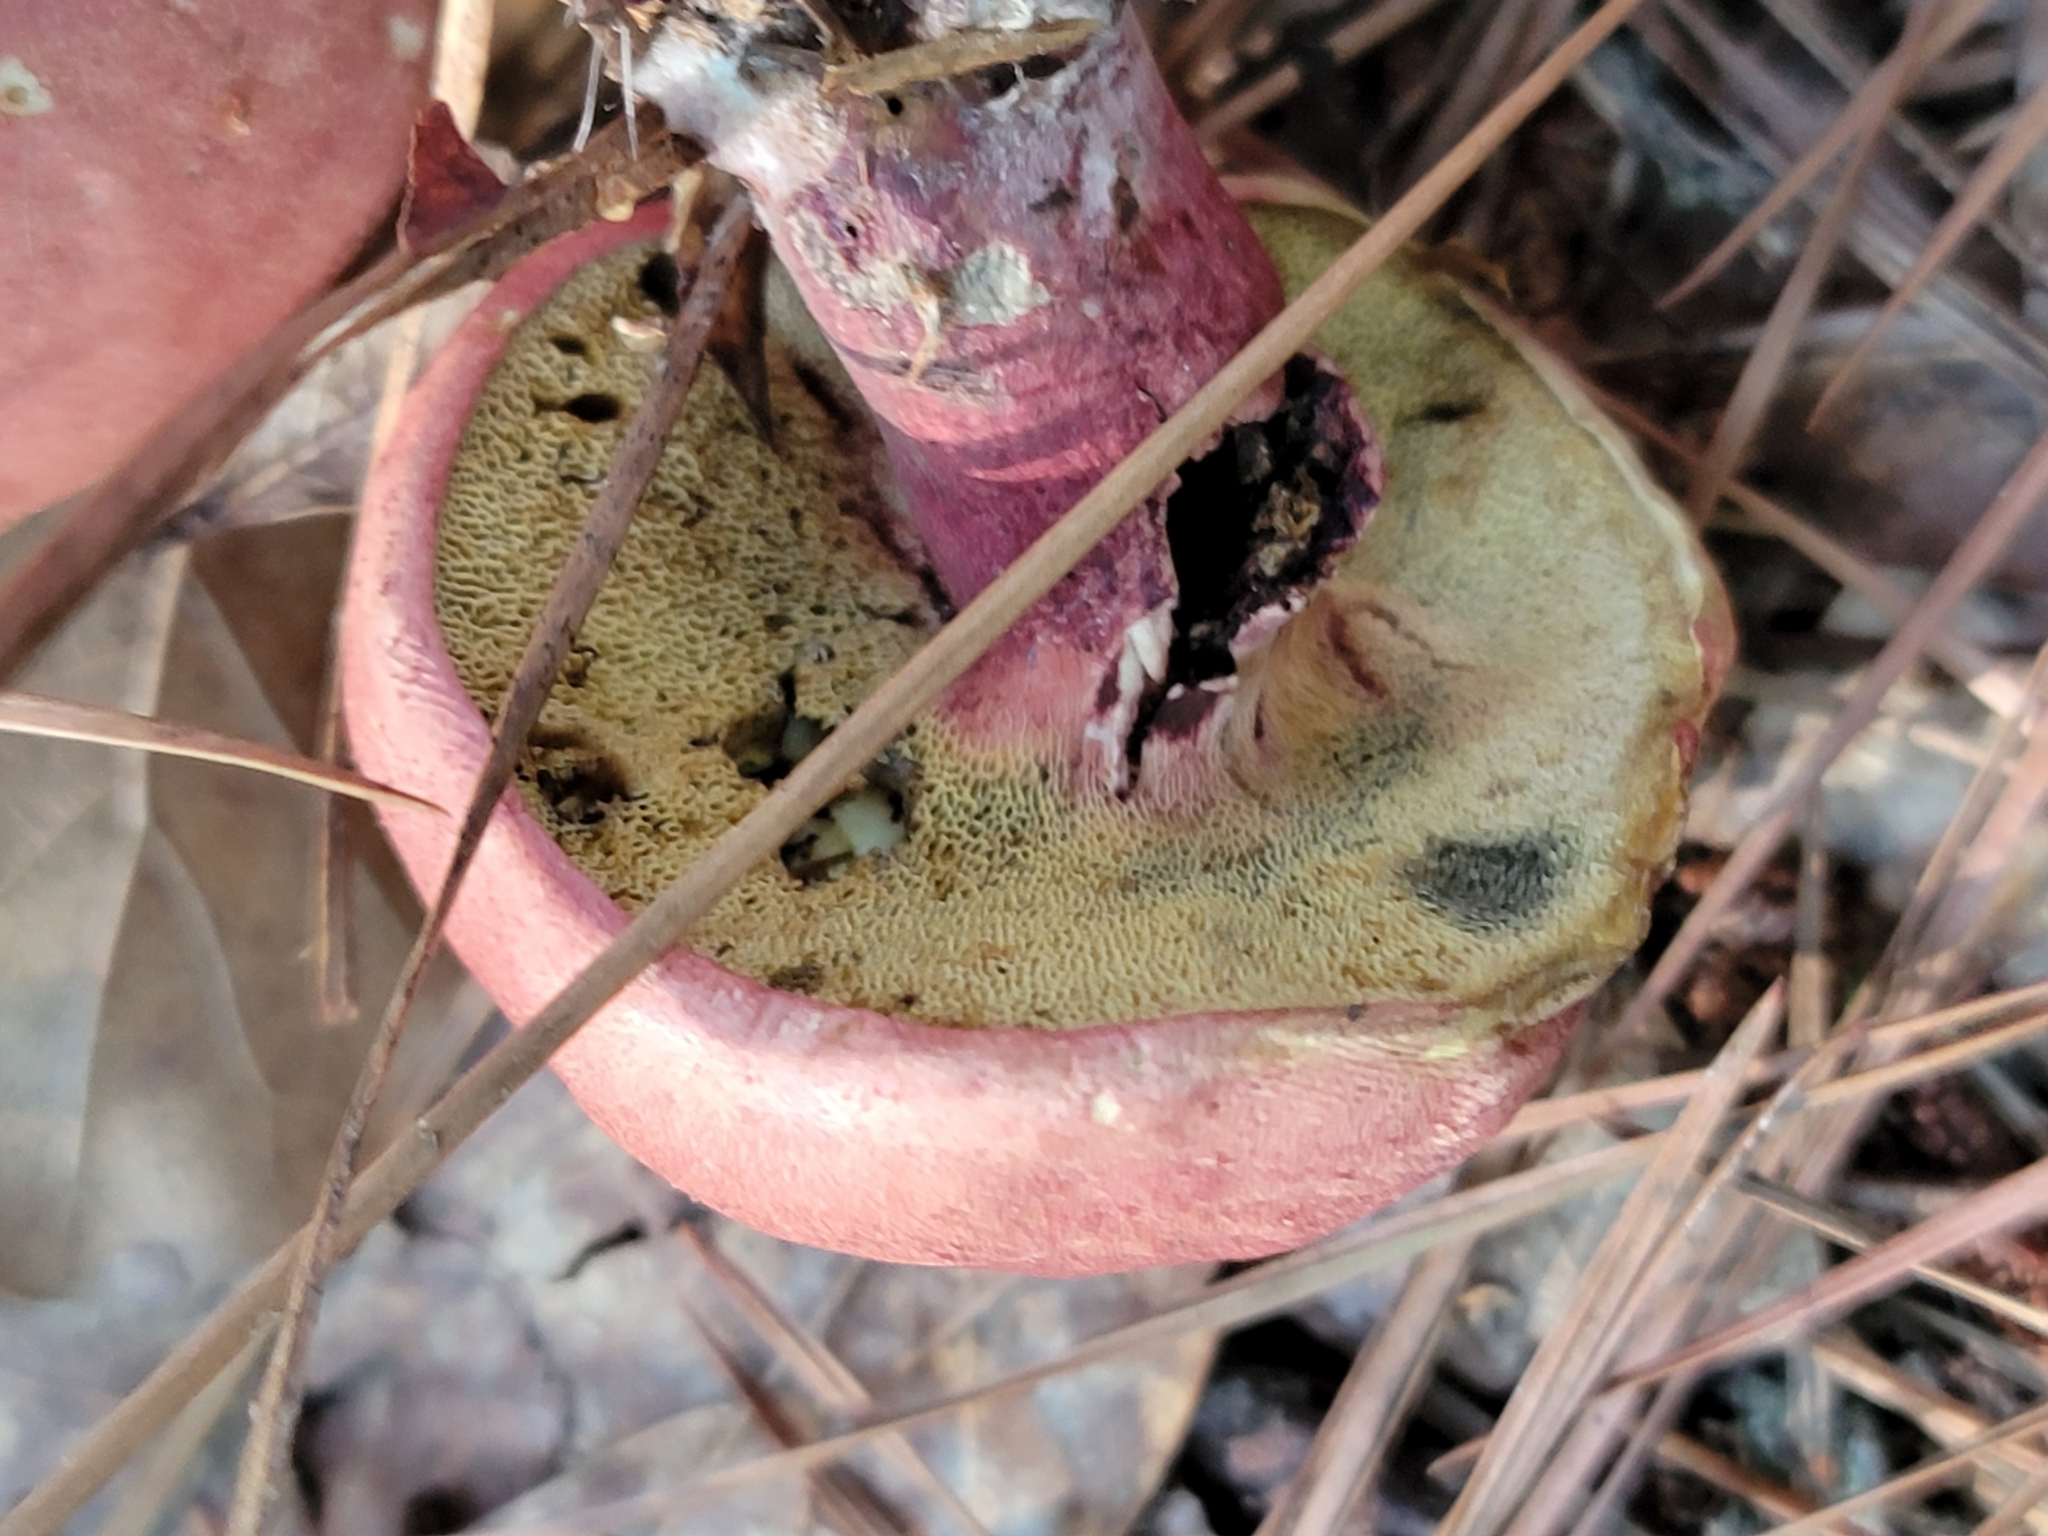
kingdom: Fungi
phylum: Basidiomycota
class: Agaricomycetes
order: Boletales
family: Boletaceae
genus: Baorangia
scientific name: Baorangia bicolor
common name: Two-colored bolete
